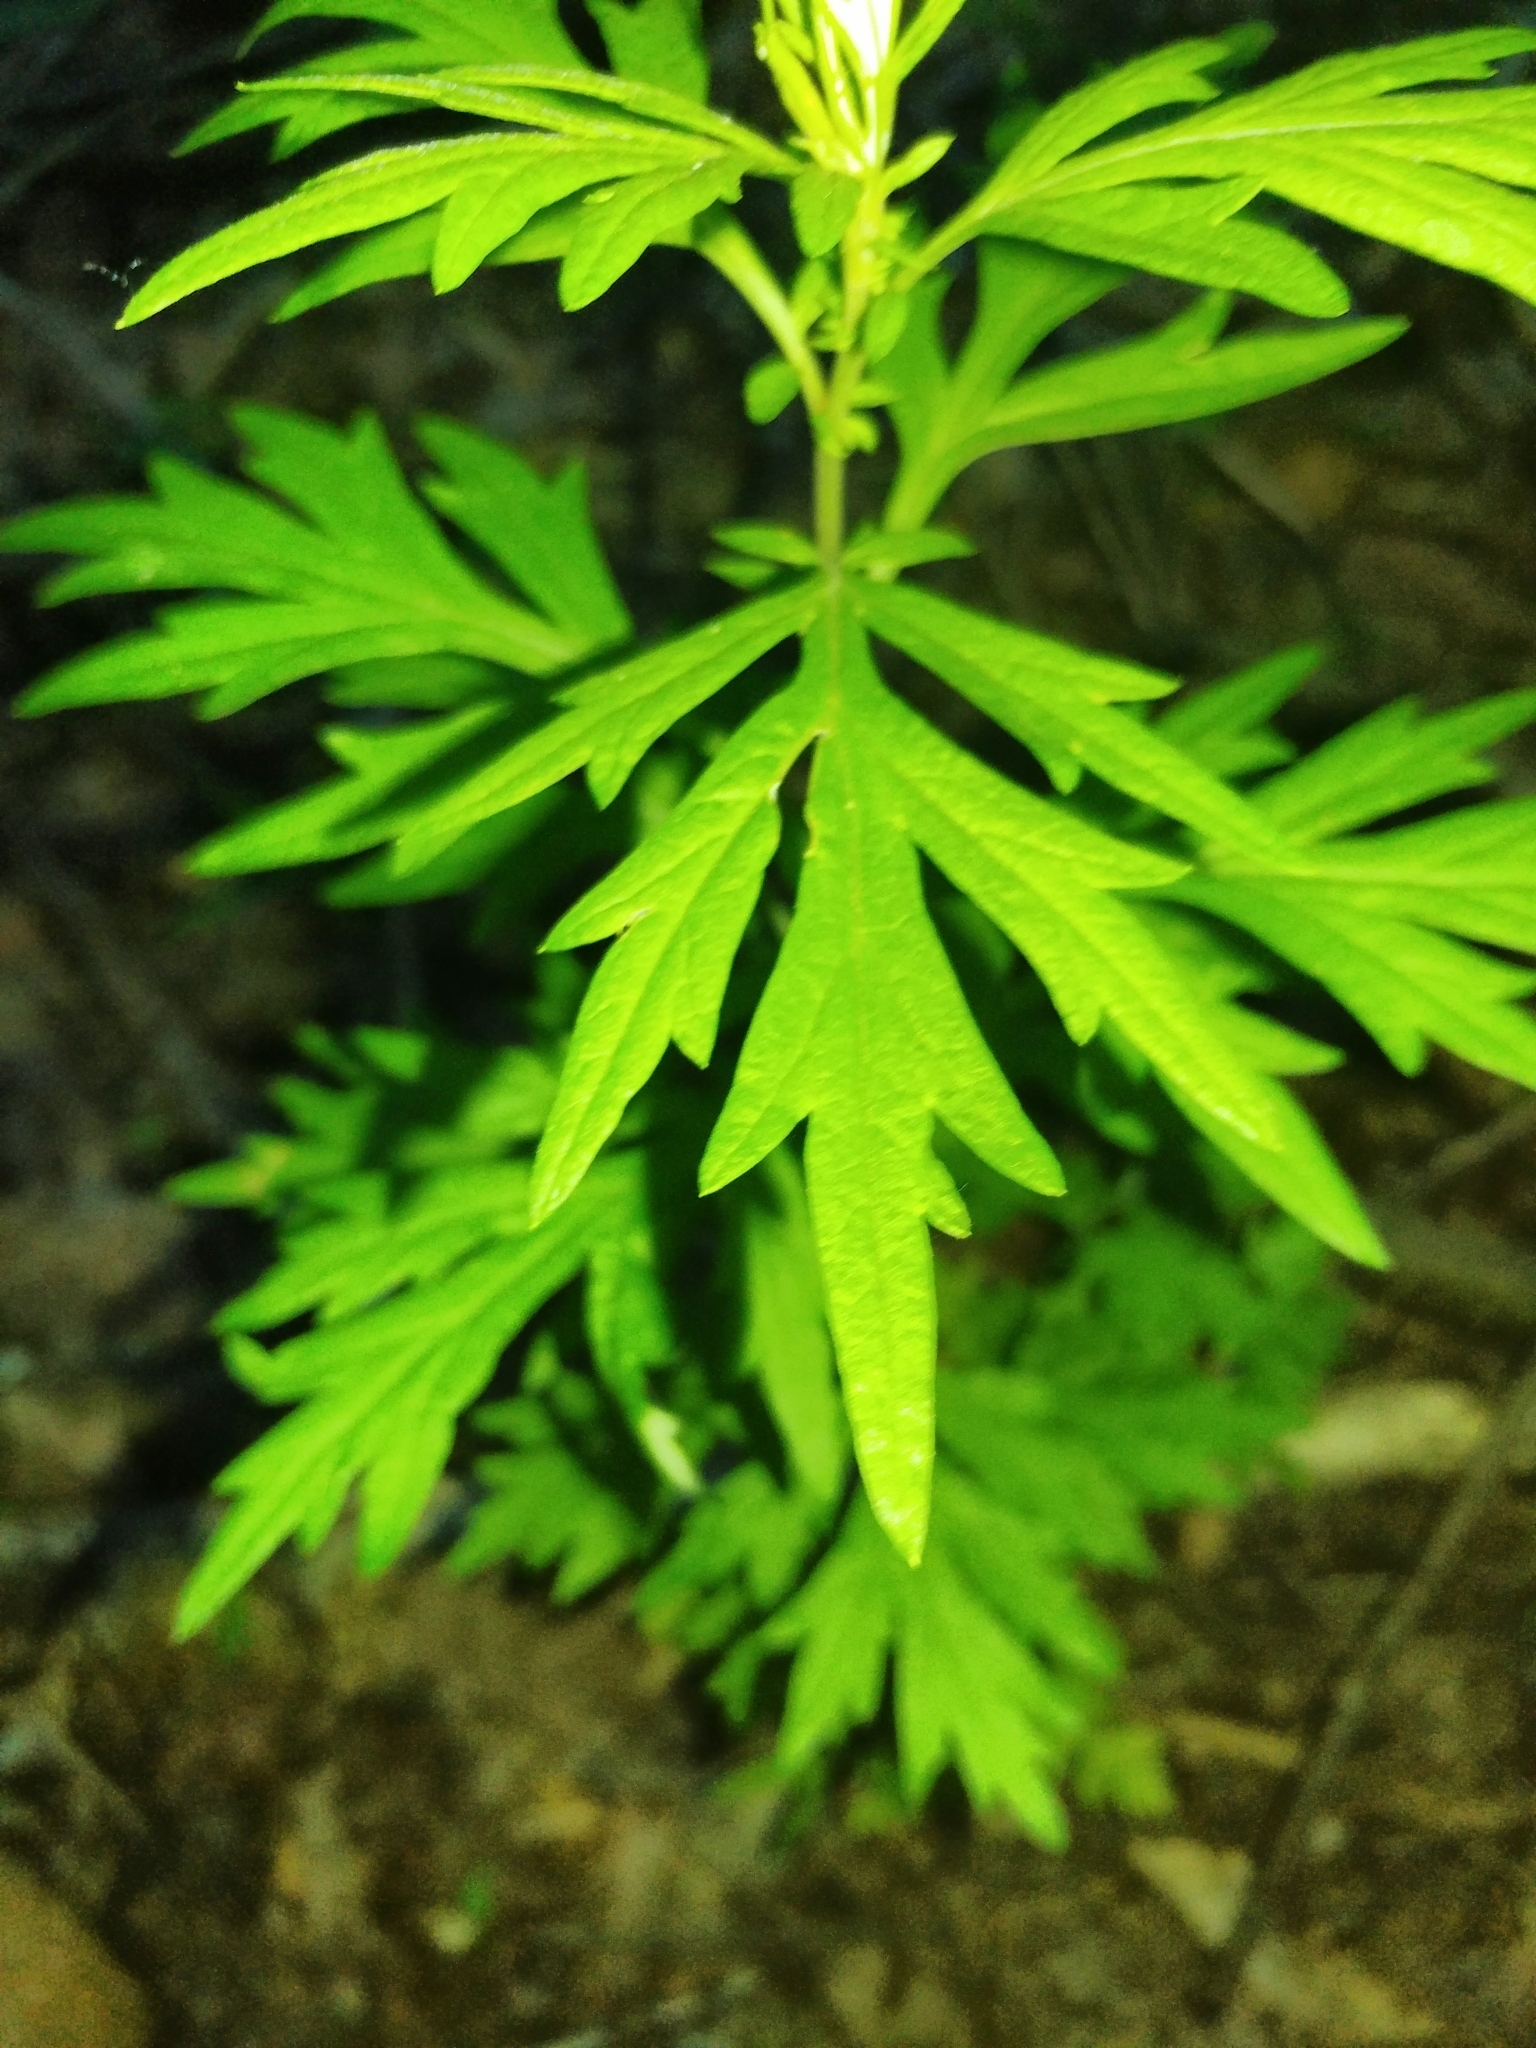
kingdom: Plantae
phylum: Tracheophyta
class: Magnoliopsida
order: Asterales
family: Asteraceae
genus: Artemisia
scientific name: Artemisia vulgaris
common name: Mugwort
